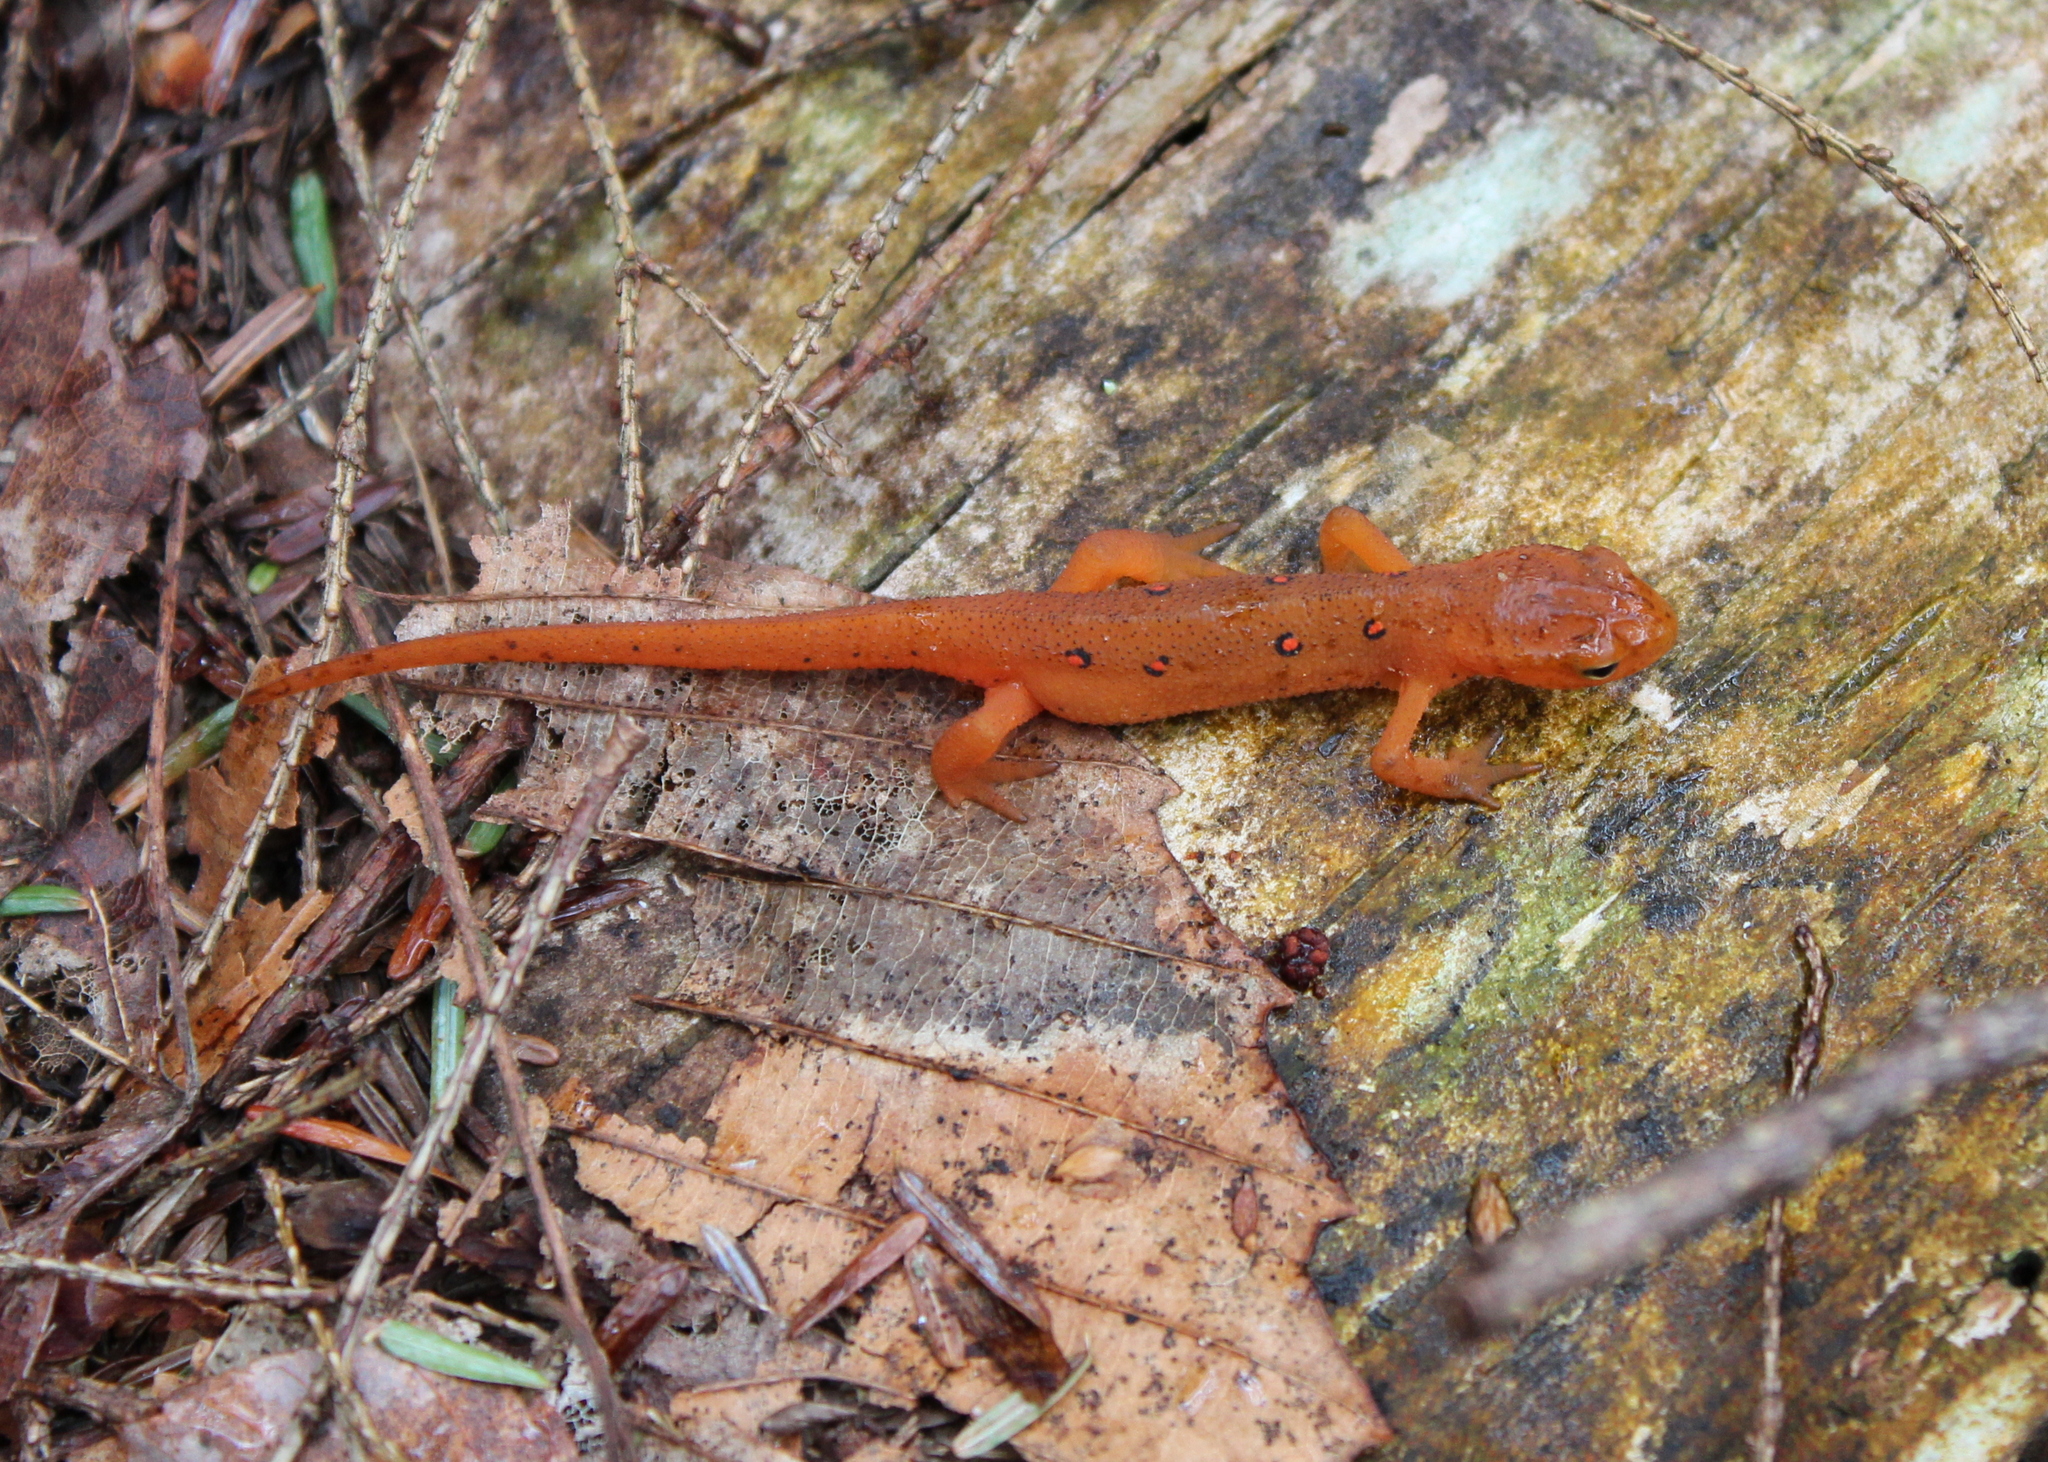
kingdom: Animalia
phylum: Chordata
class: Amphibia
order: Caudata
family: Salamandridae
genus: Notophthalmus
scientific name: Notophthalmus viridescens
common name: Eastern newt
